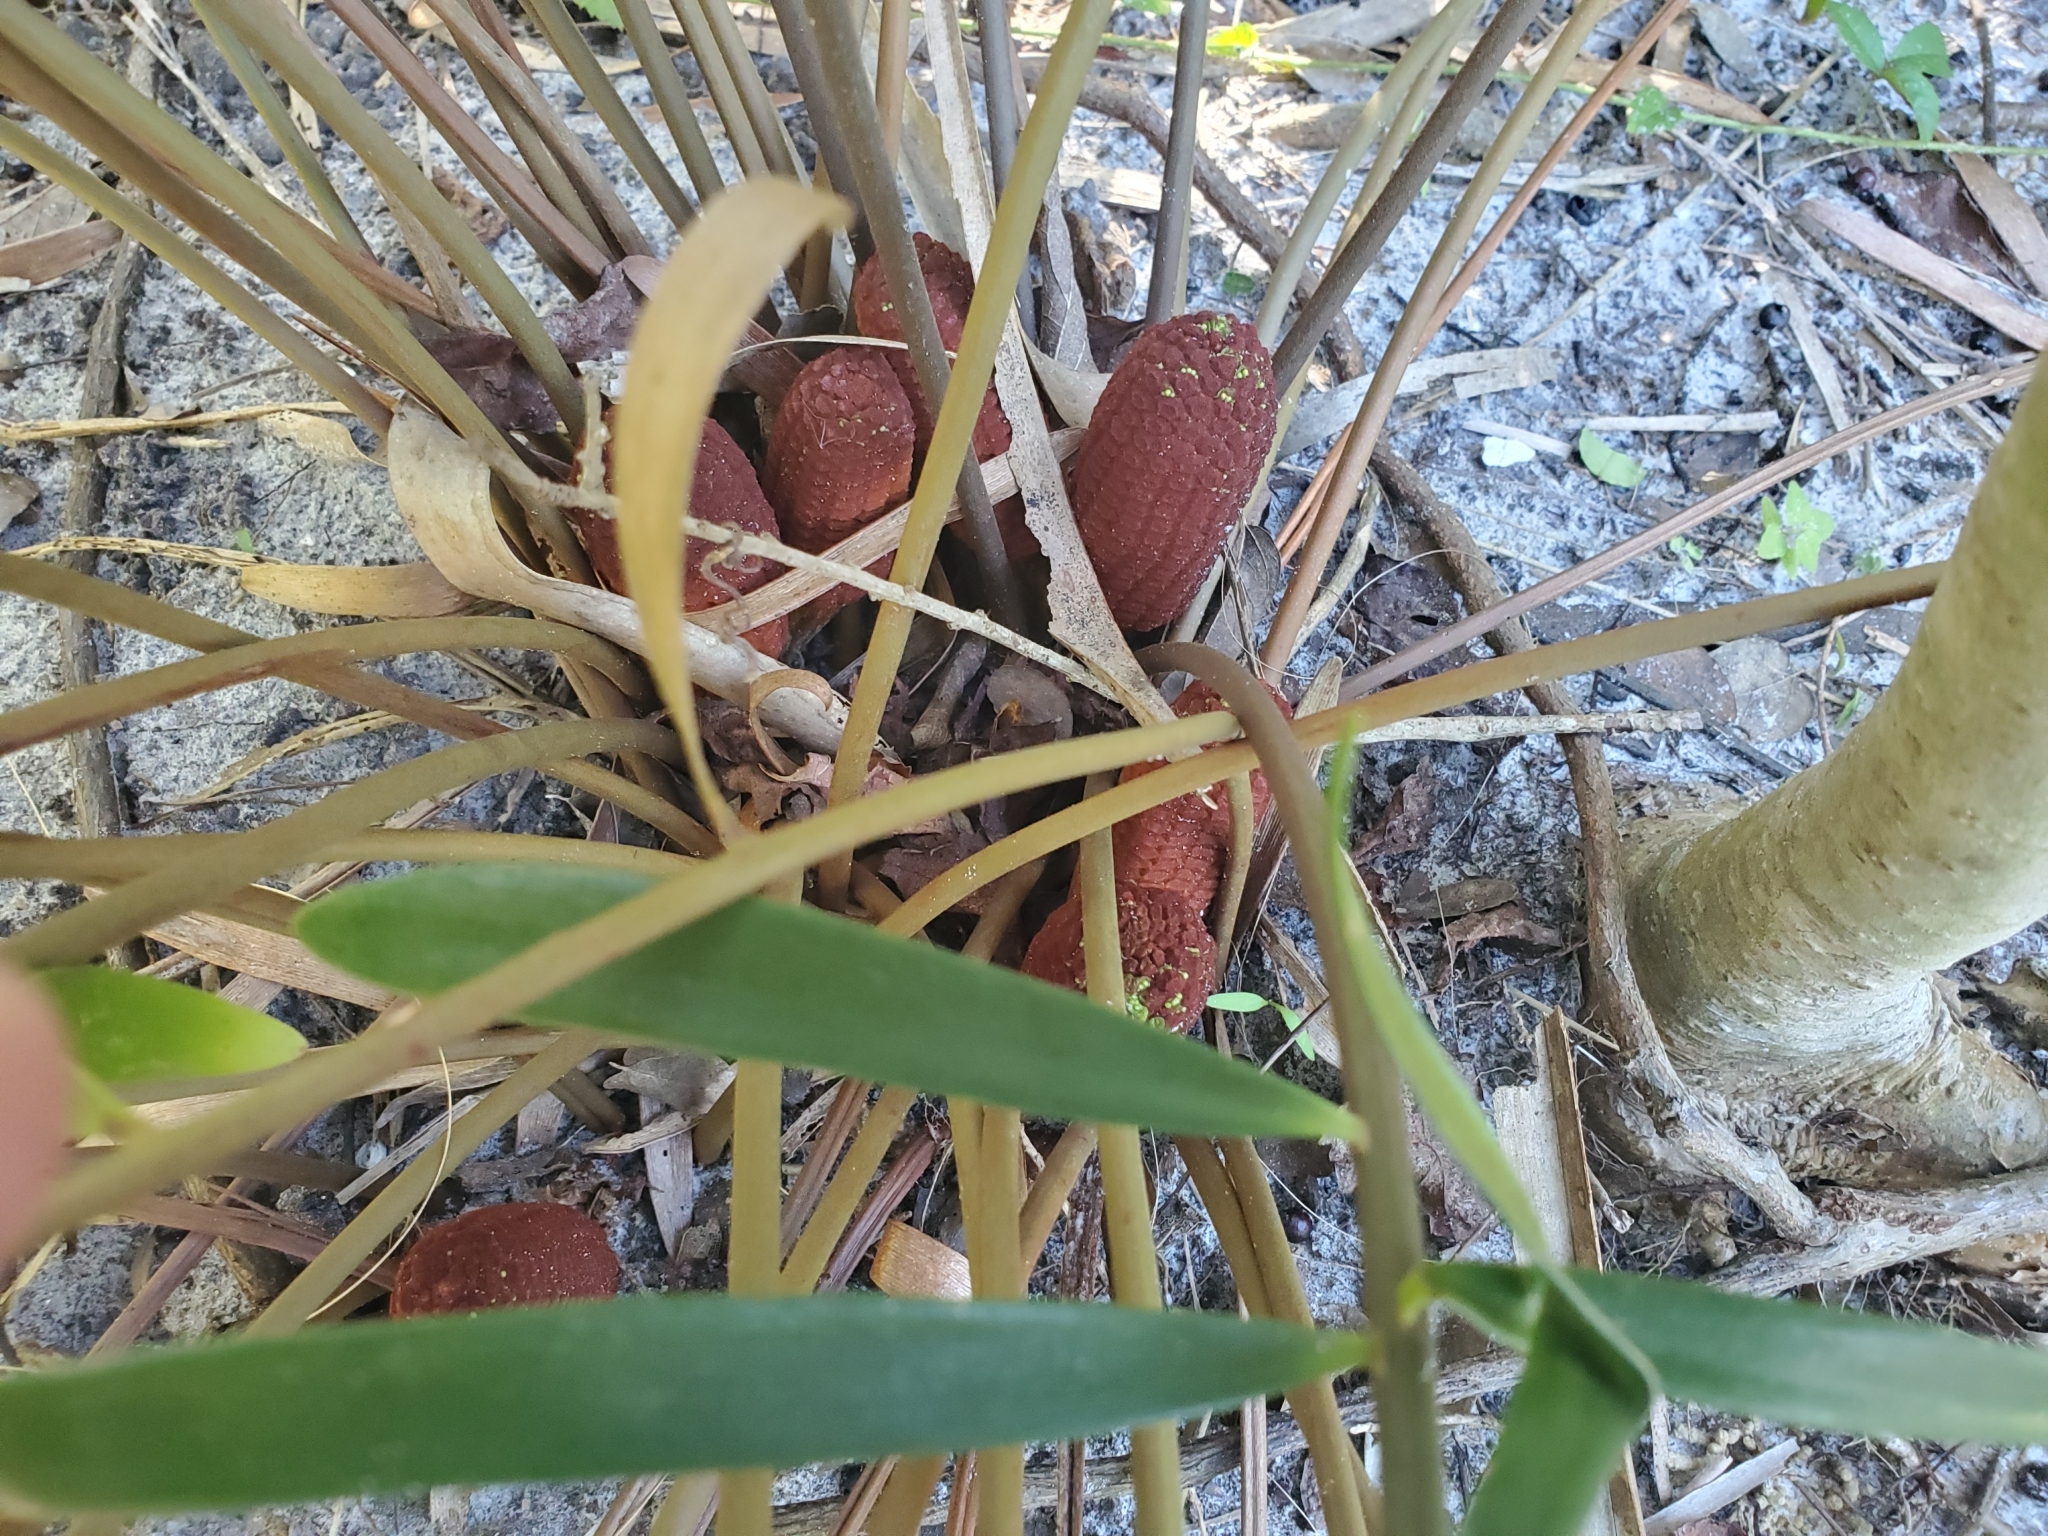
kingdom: Plantae
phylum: Tracheophyta
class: Cycadopsida
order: Cycadales
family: Zamiaceae
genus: Zamia
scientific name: Zamia integrifolia
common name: Florida arrowroot
